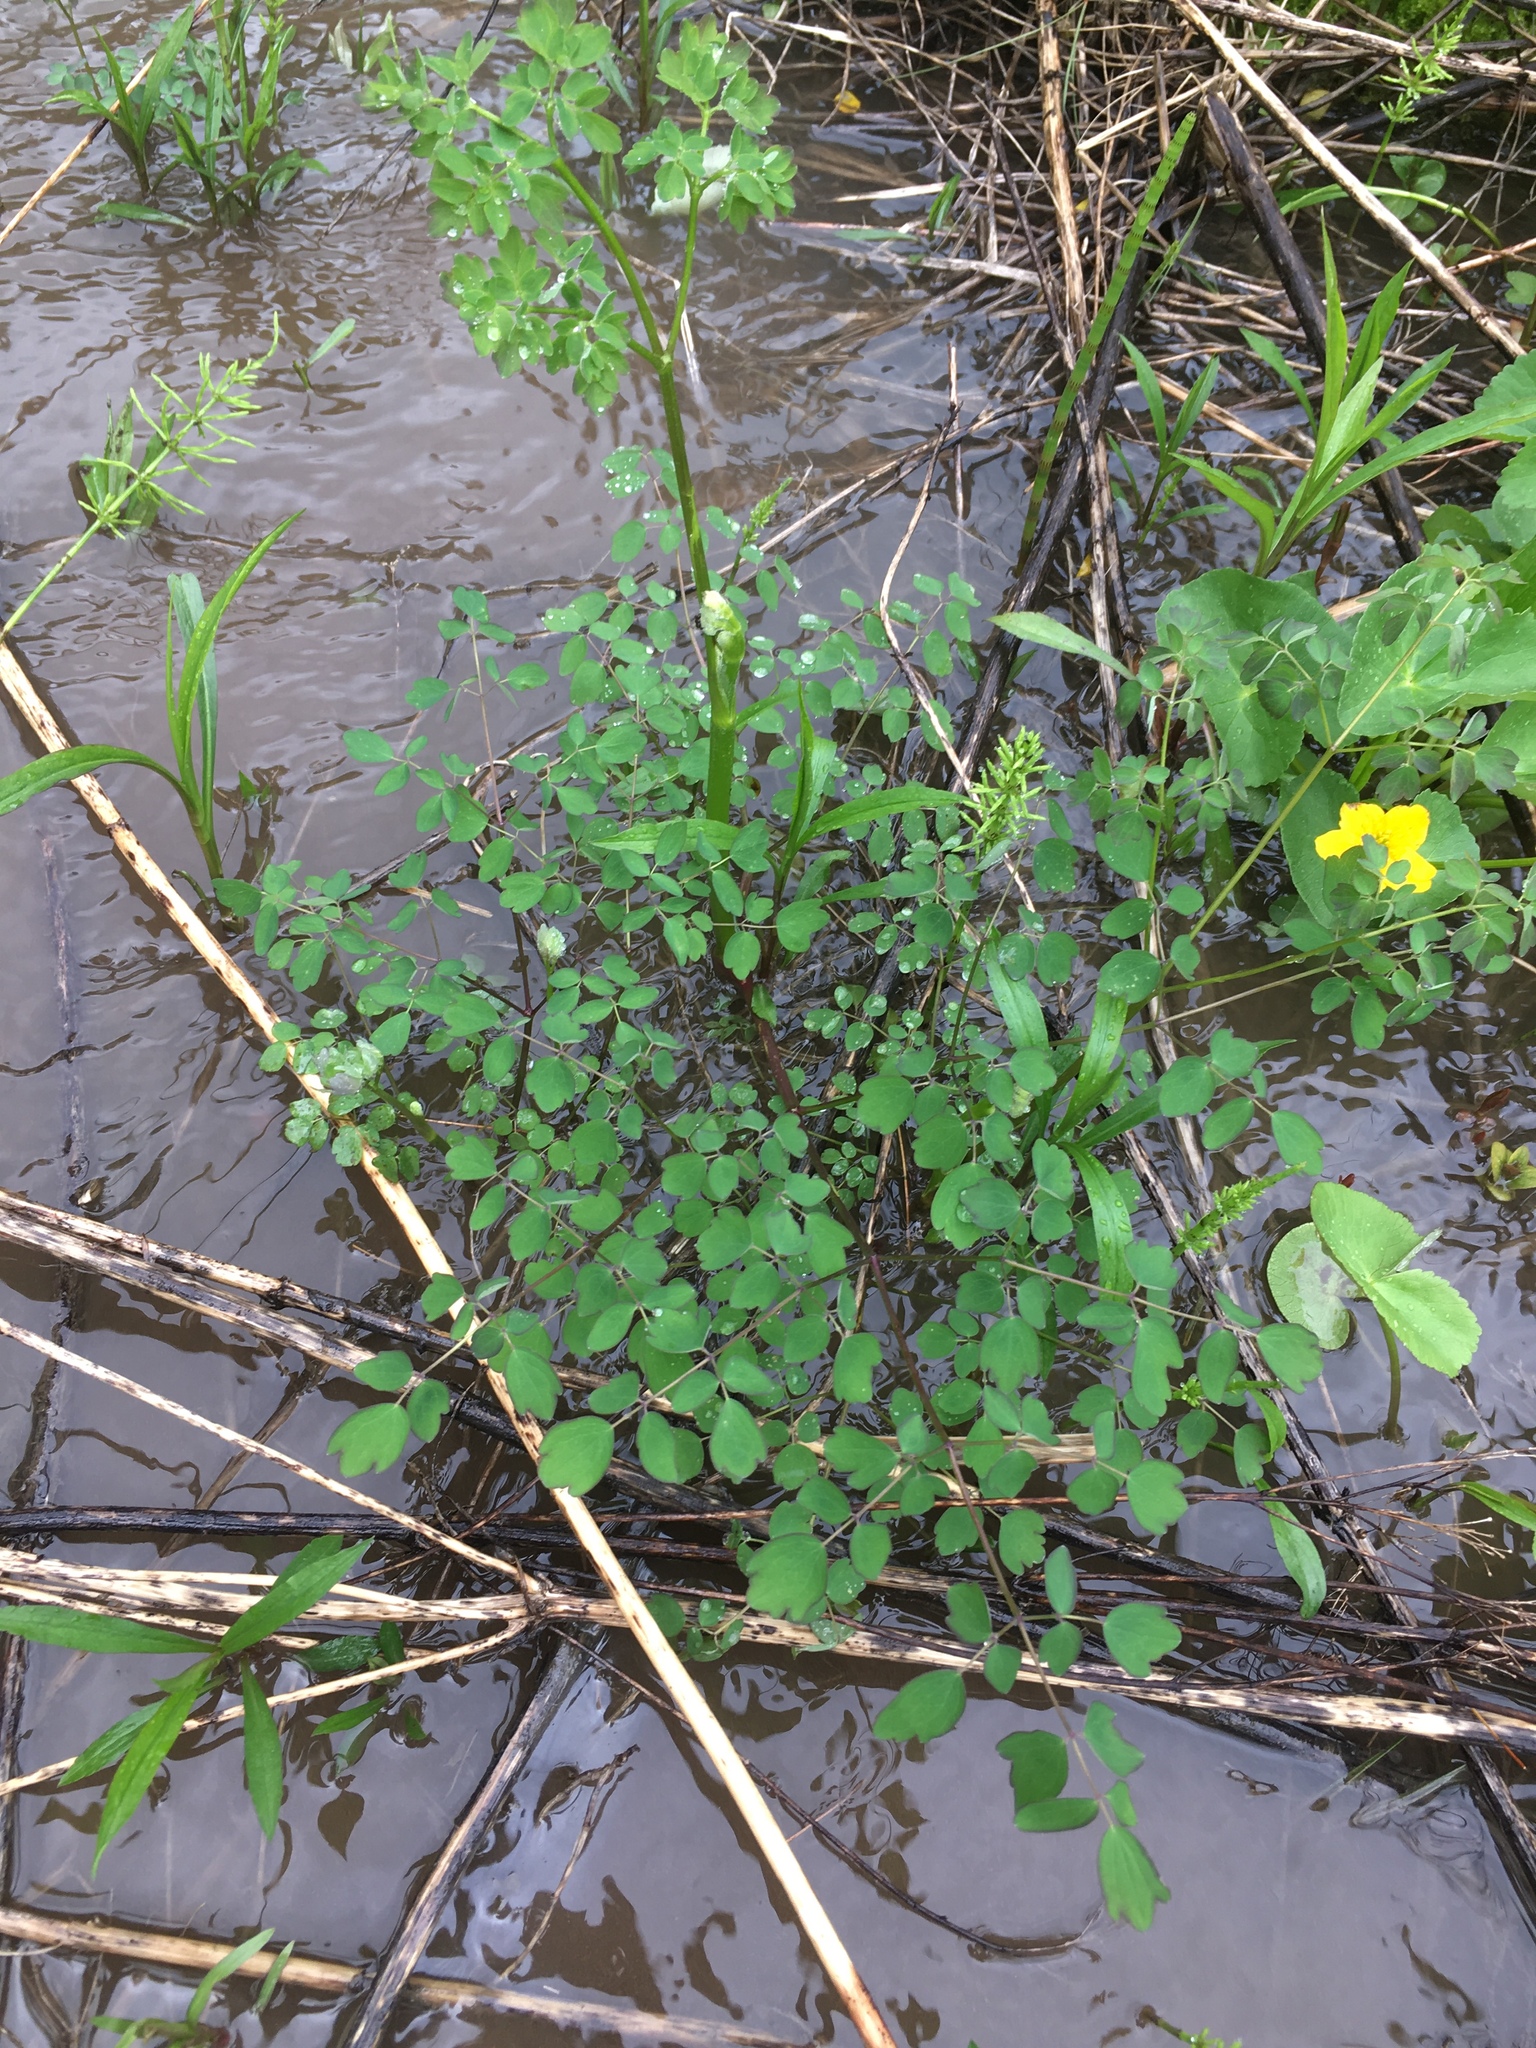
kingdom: Plantae
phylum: Tracheophyta
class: Magnoliopsida
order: Ranunculales
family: Ranunculaceae
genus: Thalictrum
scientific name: Thalictrum pubescens
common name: King-of-the-meadow
